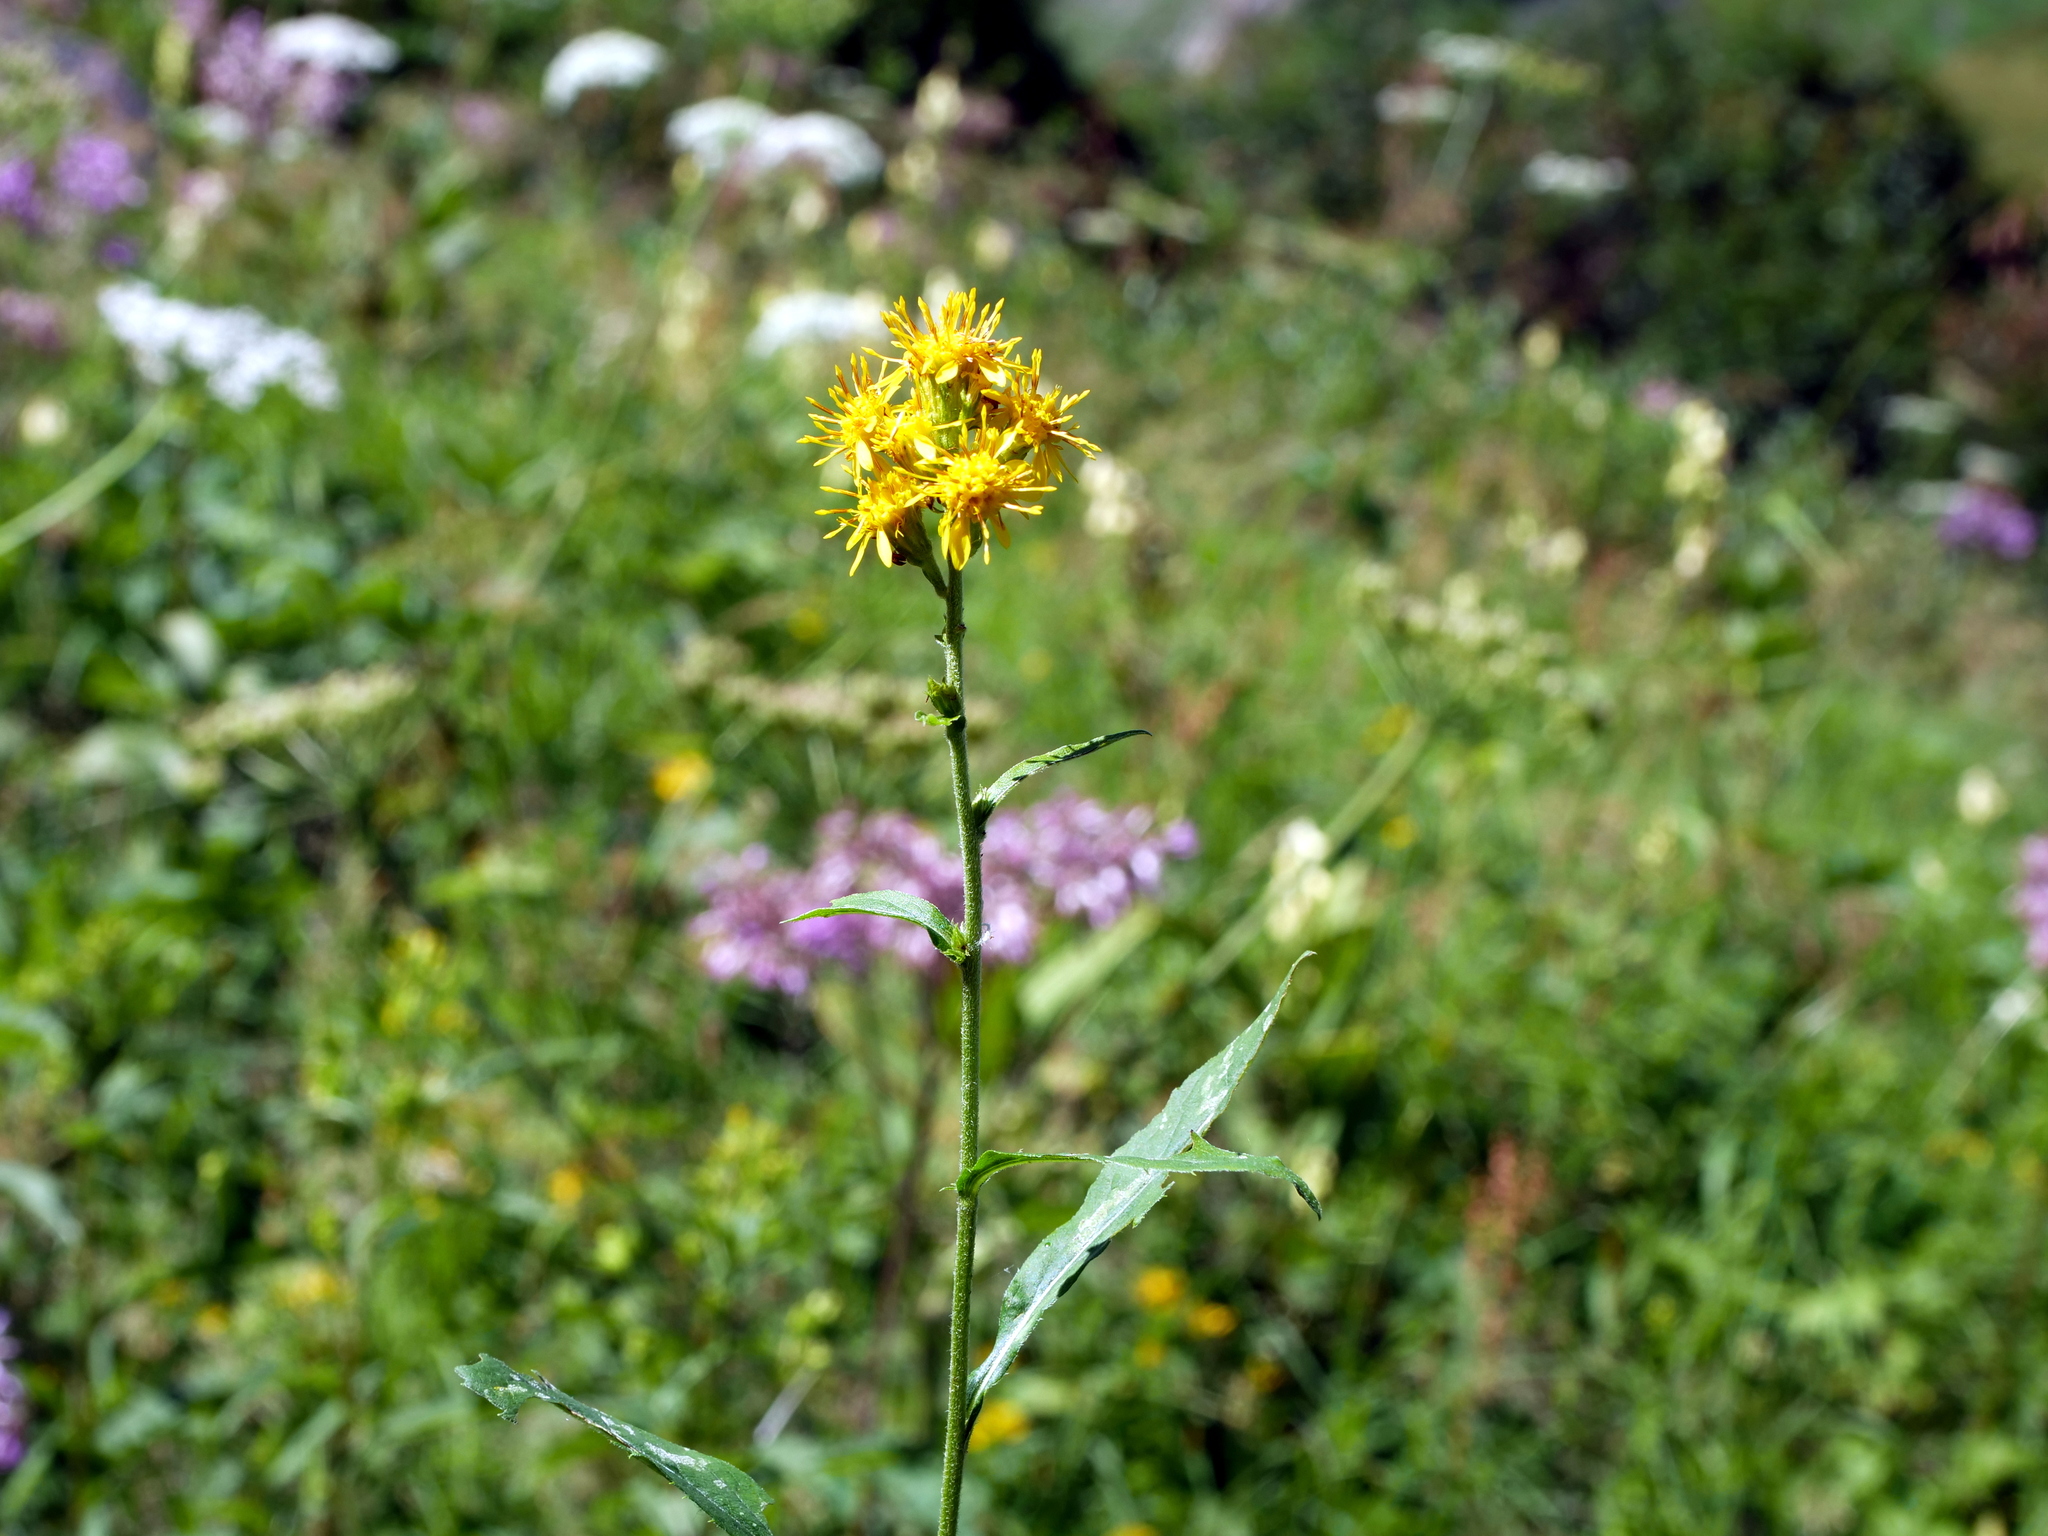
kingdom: Plantae
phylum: Tracheophyta
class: Magnoliopsida
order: Asterales
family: Asteraceae
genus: Solidago
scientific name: Solidago virgaurea
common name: Goldenrod
